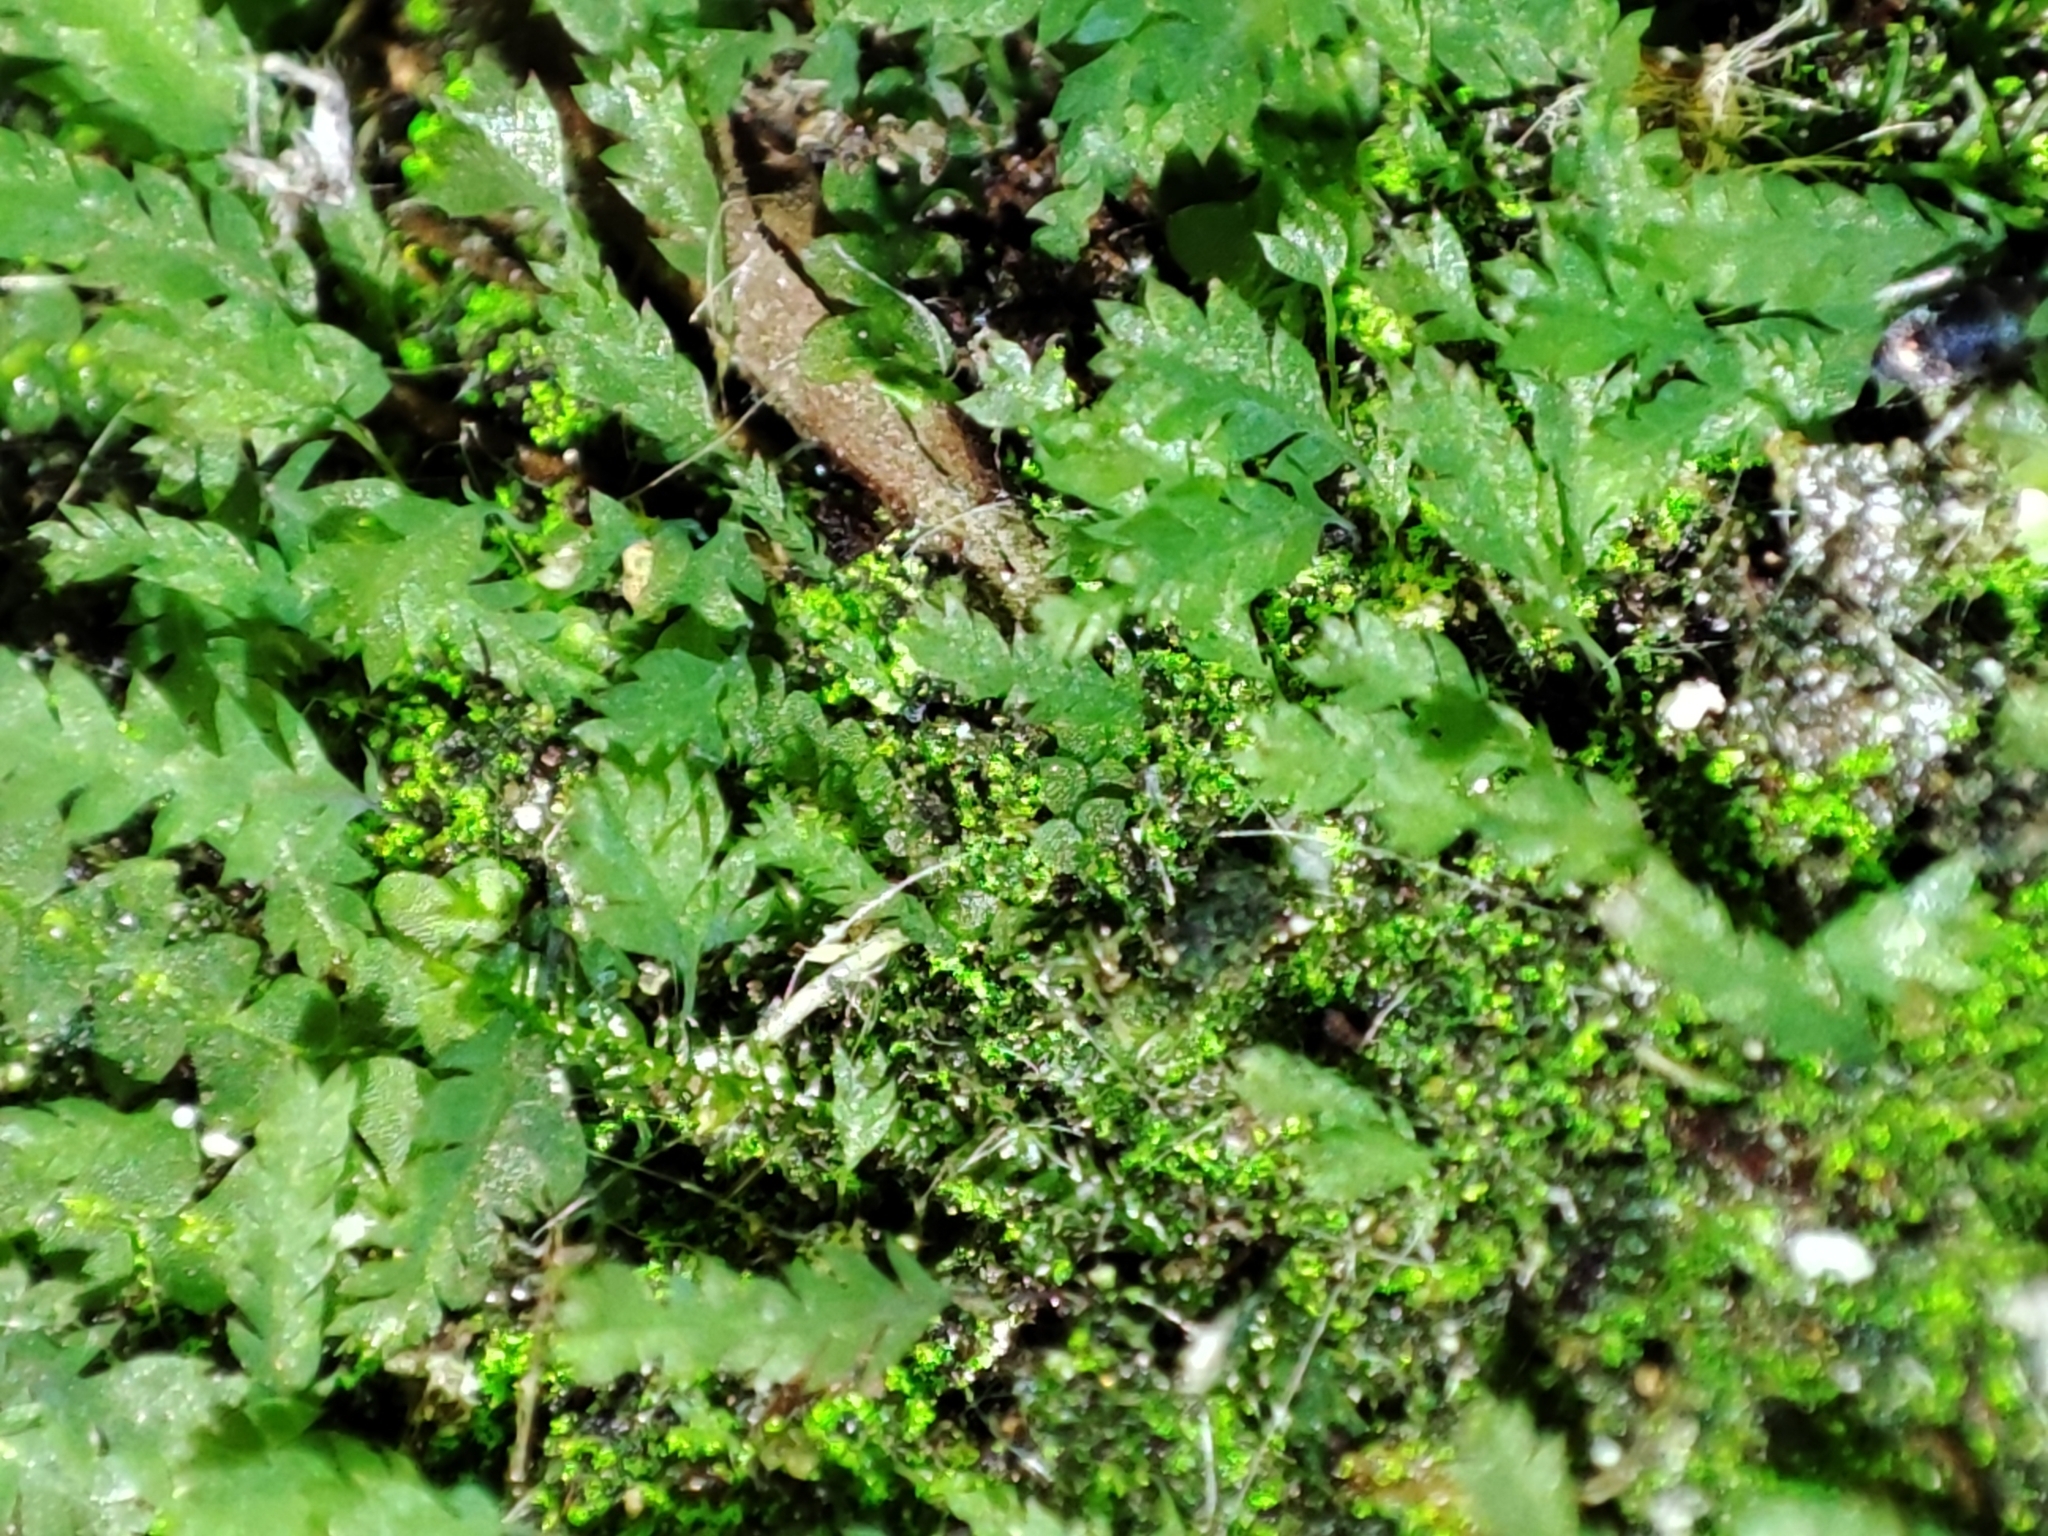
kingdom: Plantae
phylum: Bryophyta
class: Bryopsida
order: Dicranales
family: Schistostegaceae
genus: Schistostega
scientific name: Schistostega pennata
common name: Luminous moss
